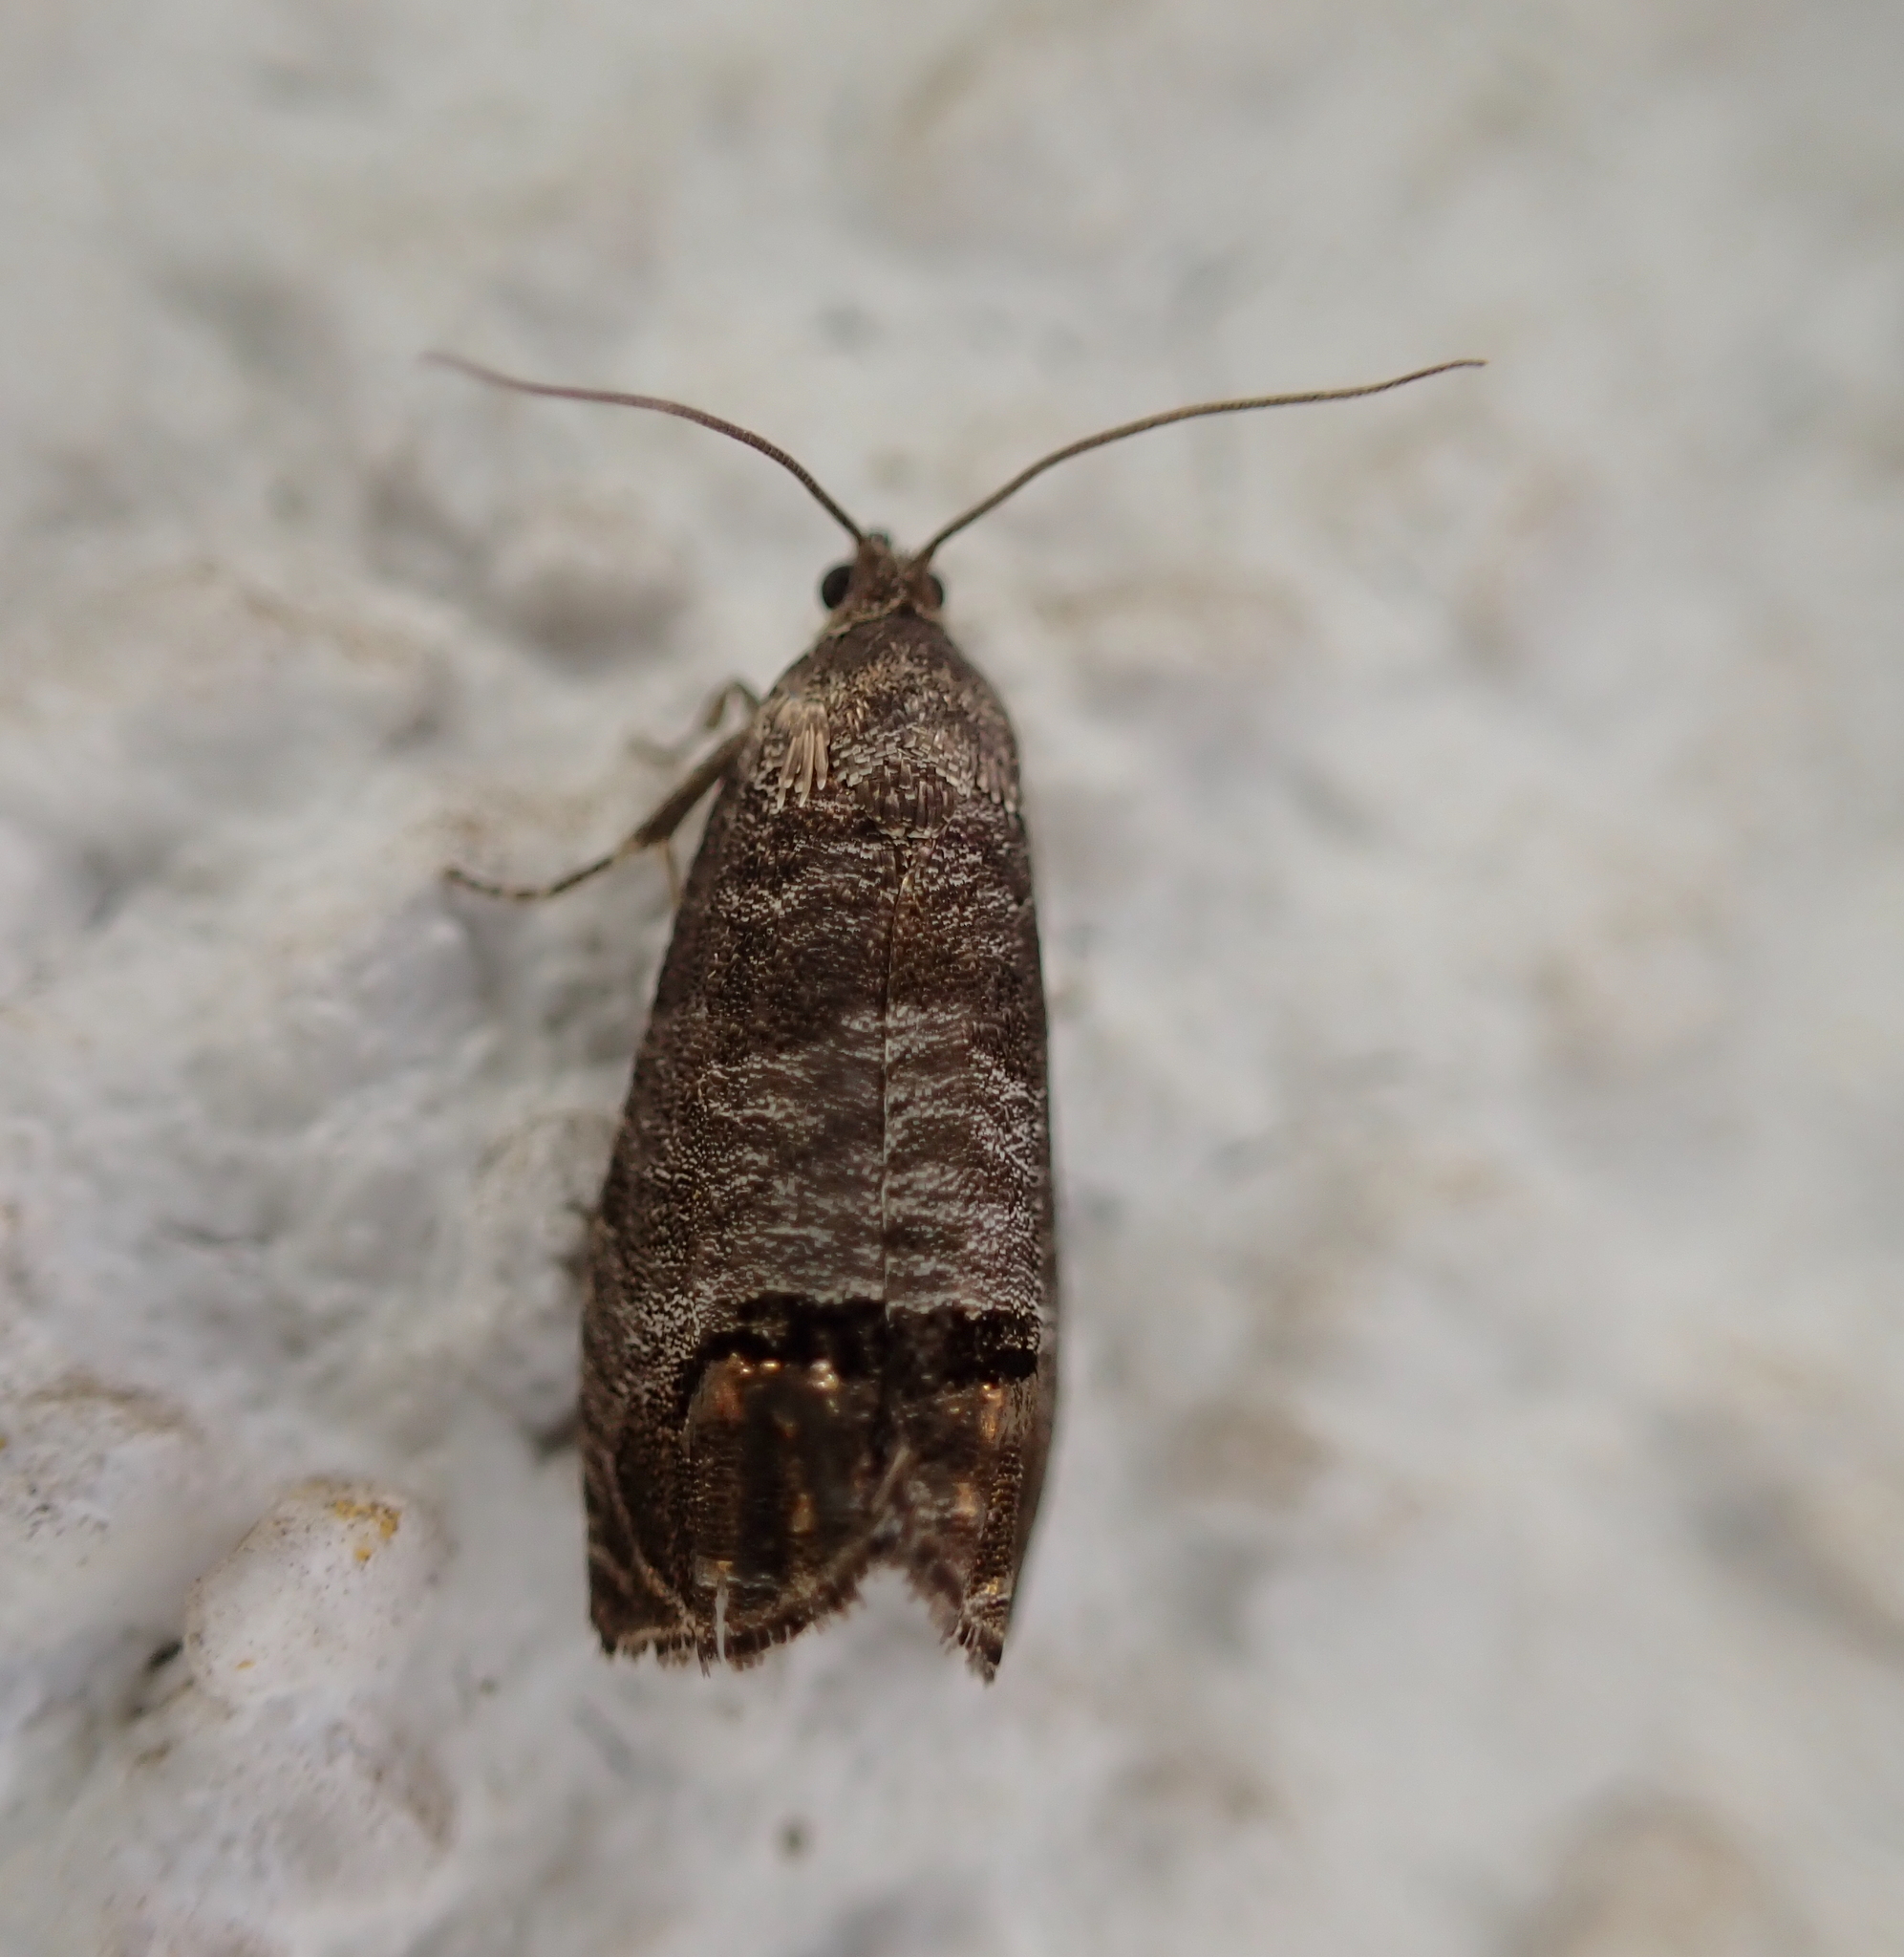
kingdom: Animalia
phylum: Arthropoda
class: Insecta
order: Lepidoptera
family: Tortricidae
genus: Cydia
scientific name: Cydia pomonella
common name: Codling moth
